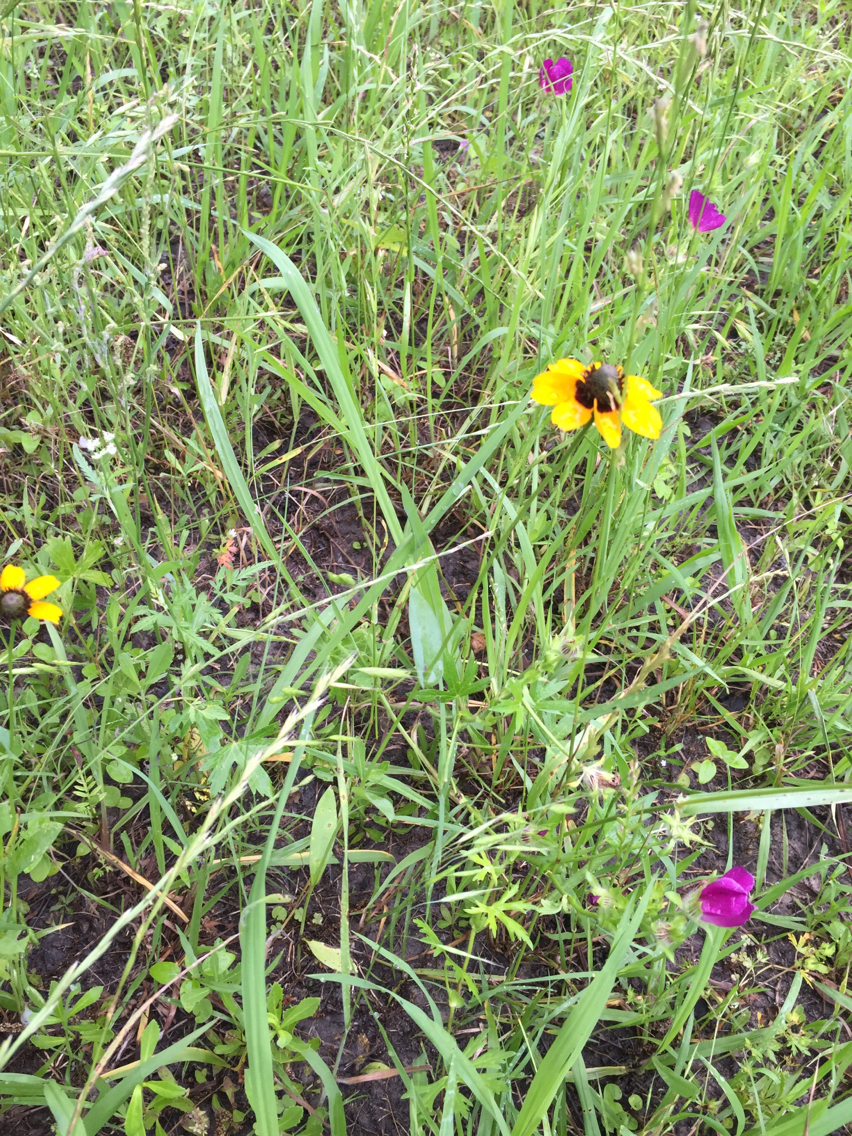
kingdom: Plantae
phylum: Tracheophyta
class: Magnoliopsida
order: Asterales
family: Asteraceae
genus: Rudbeckia
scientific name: Rudbeckia amplexicaulis
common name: Clasping-leaf coneflower
